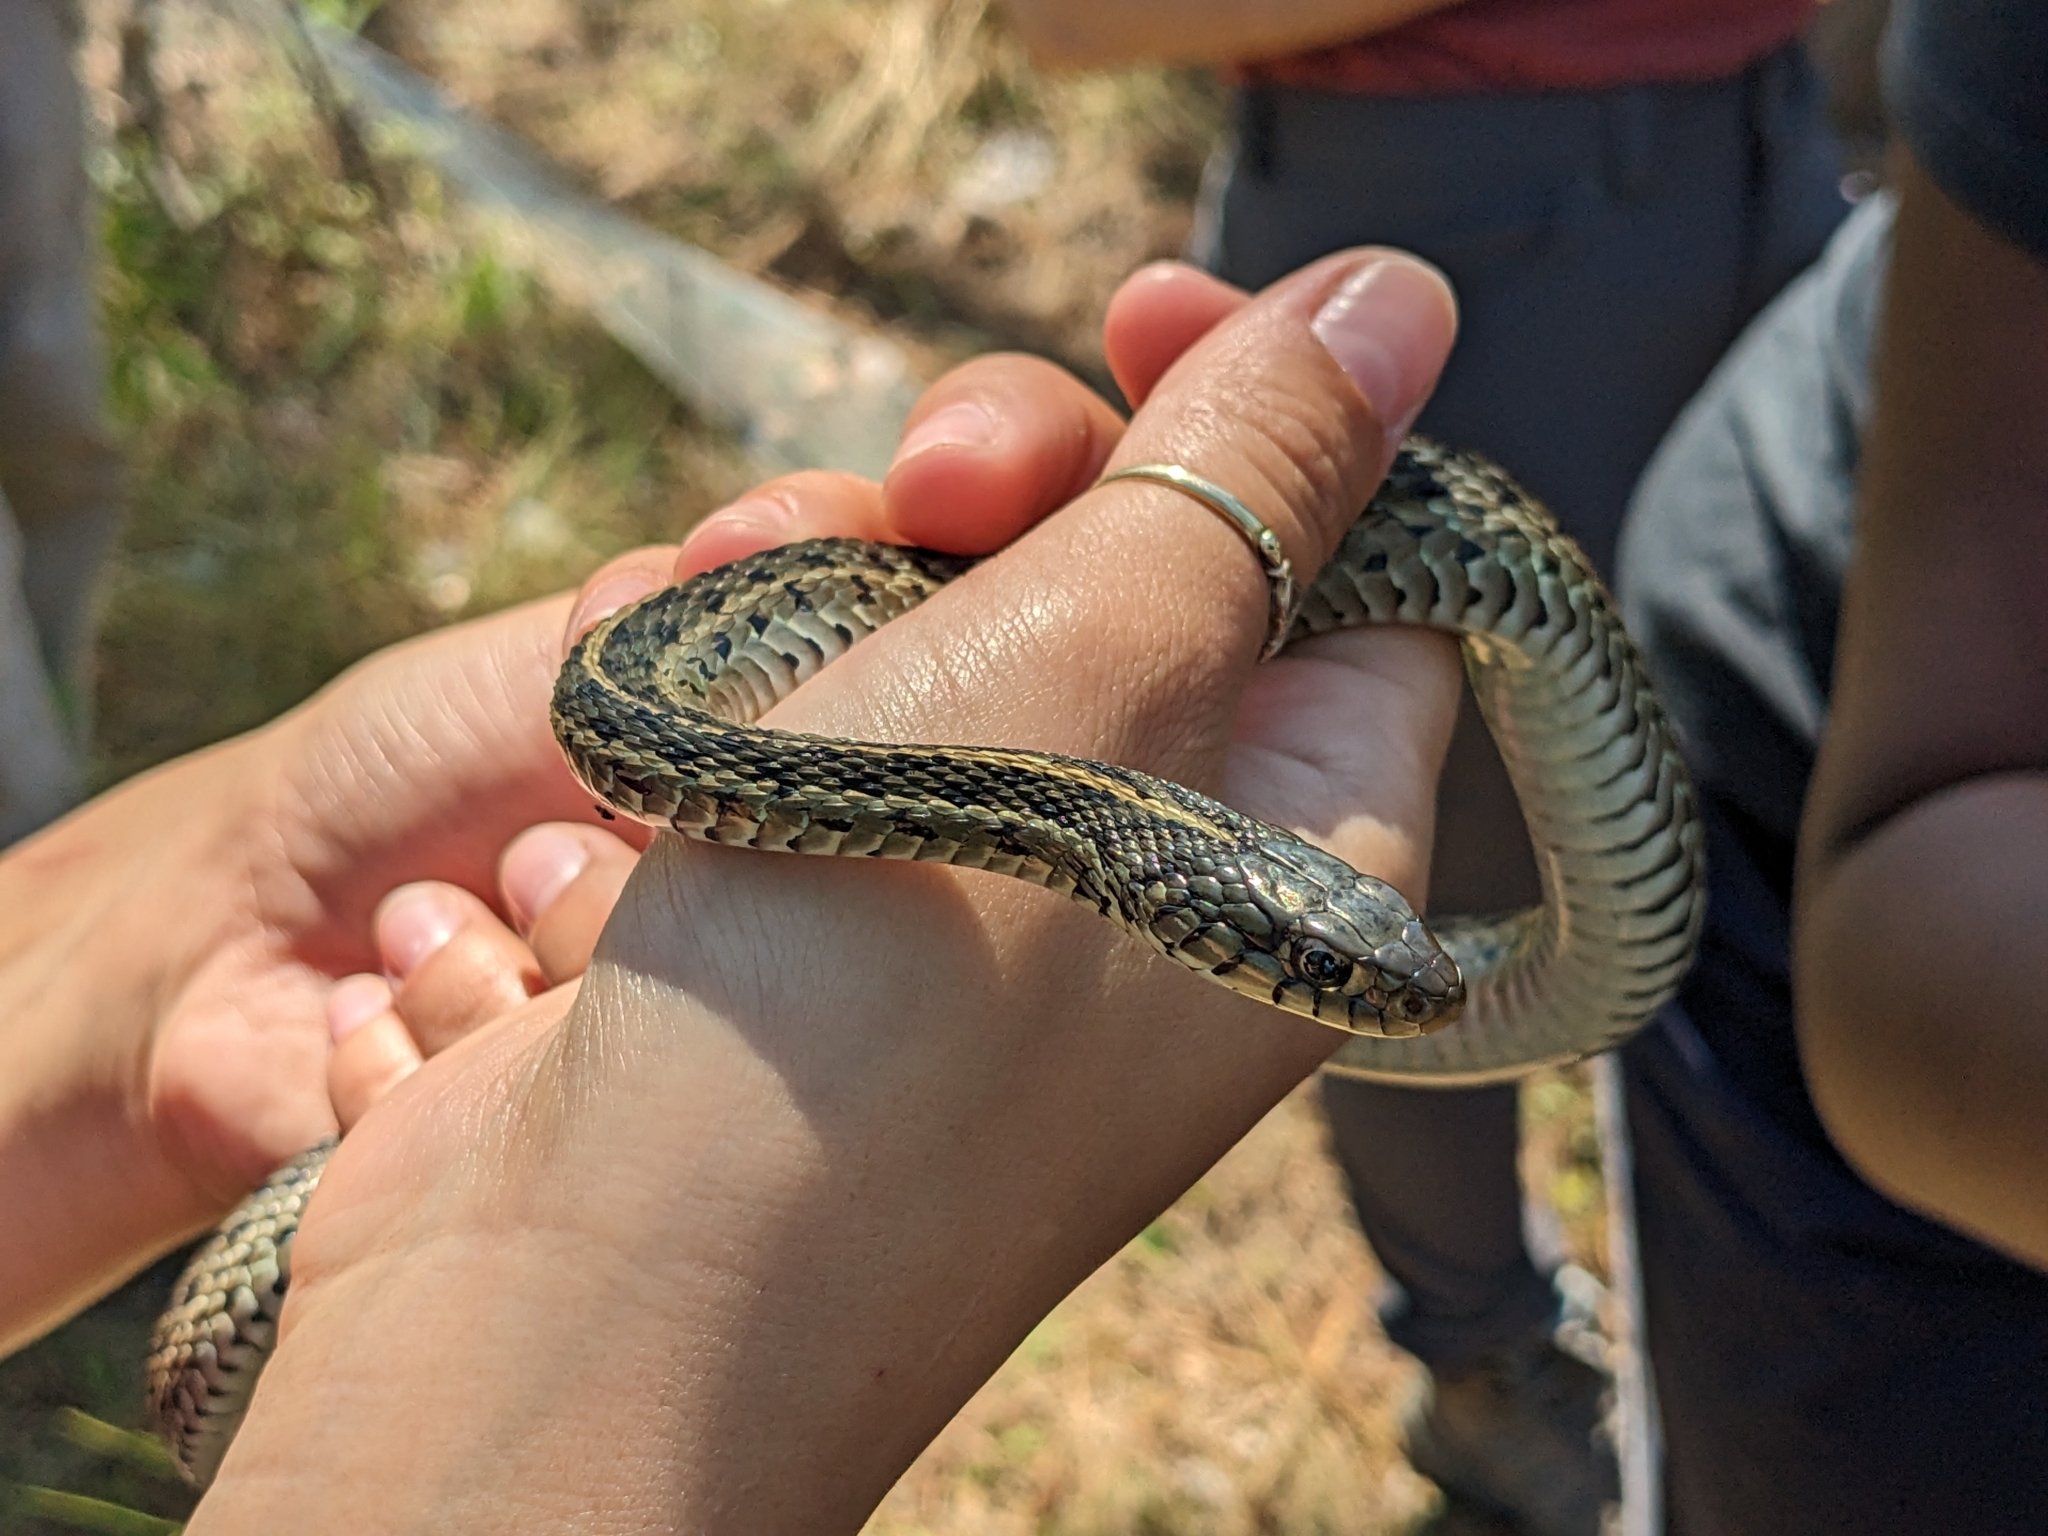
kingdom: Animalia
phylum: Chordata
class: Squamata
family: Colubridae
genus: Thamnophis
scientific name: Thamnophis sirtalis
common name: Common garter snake
